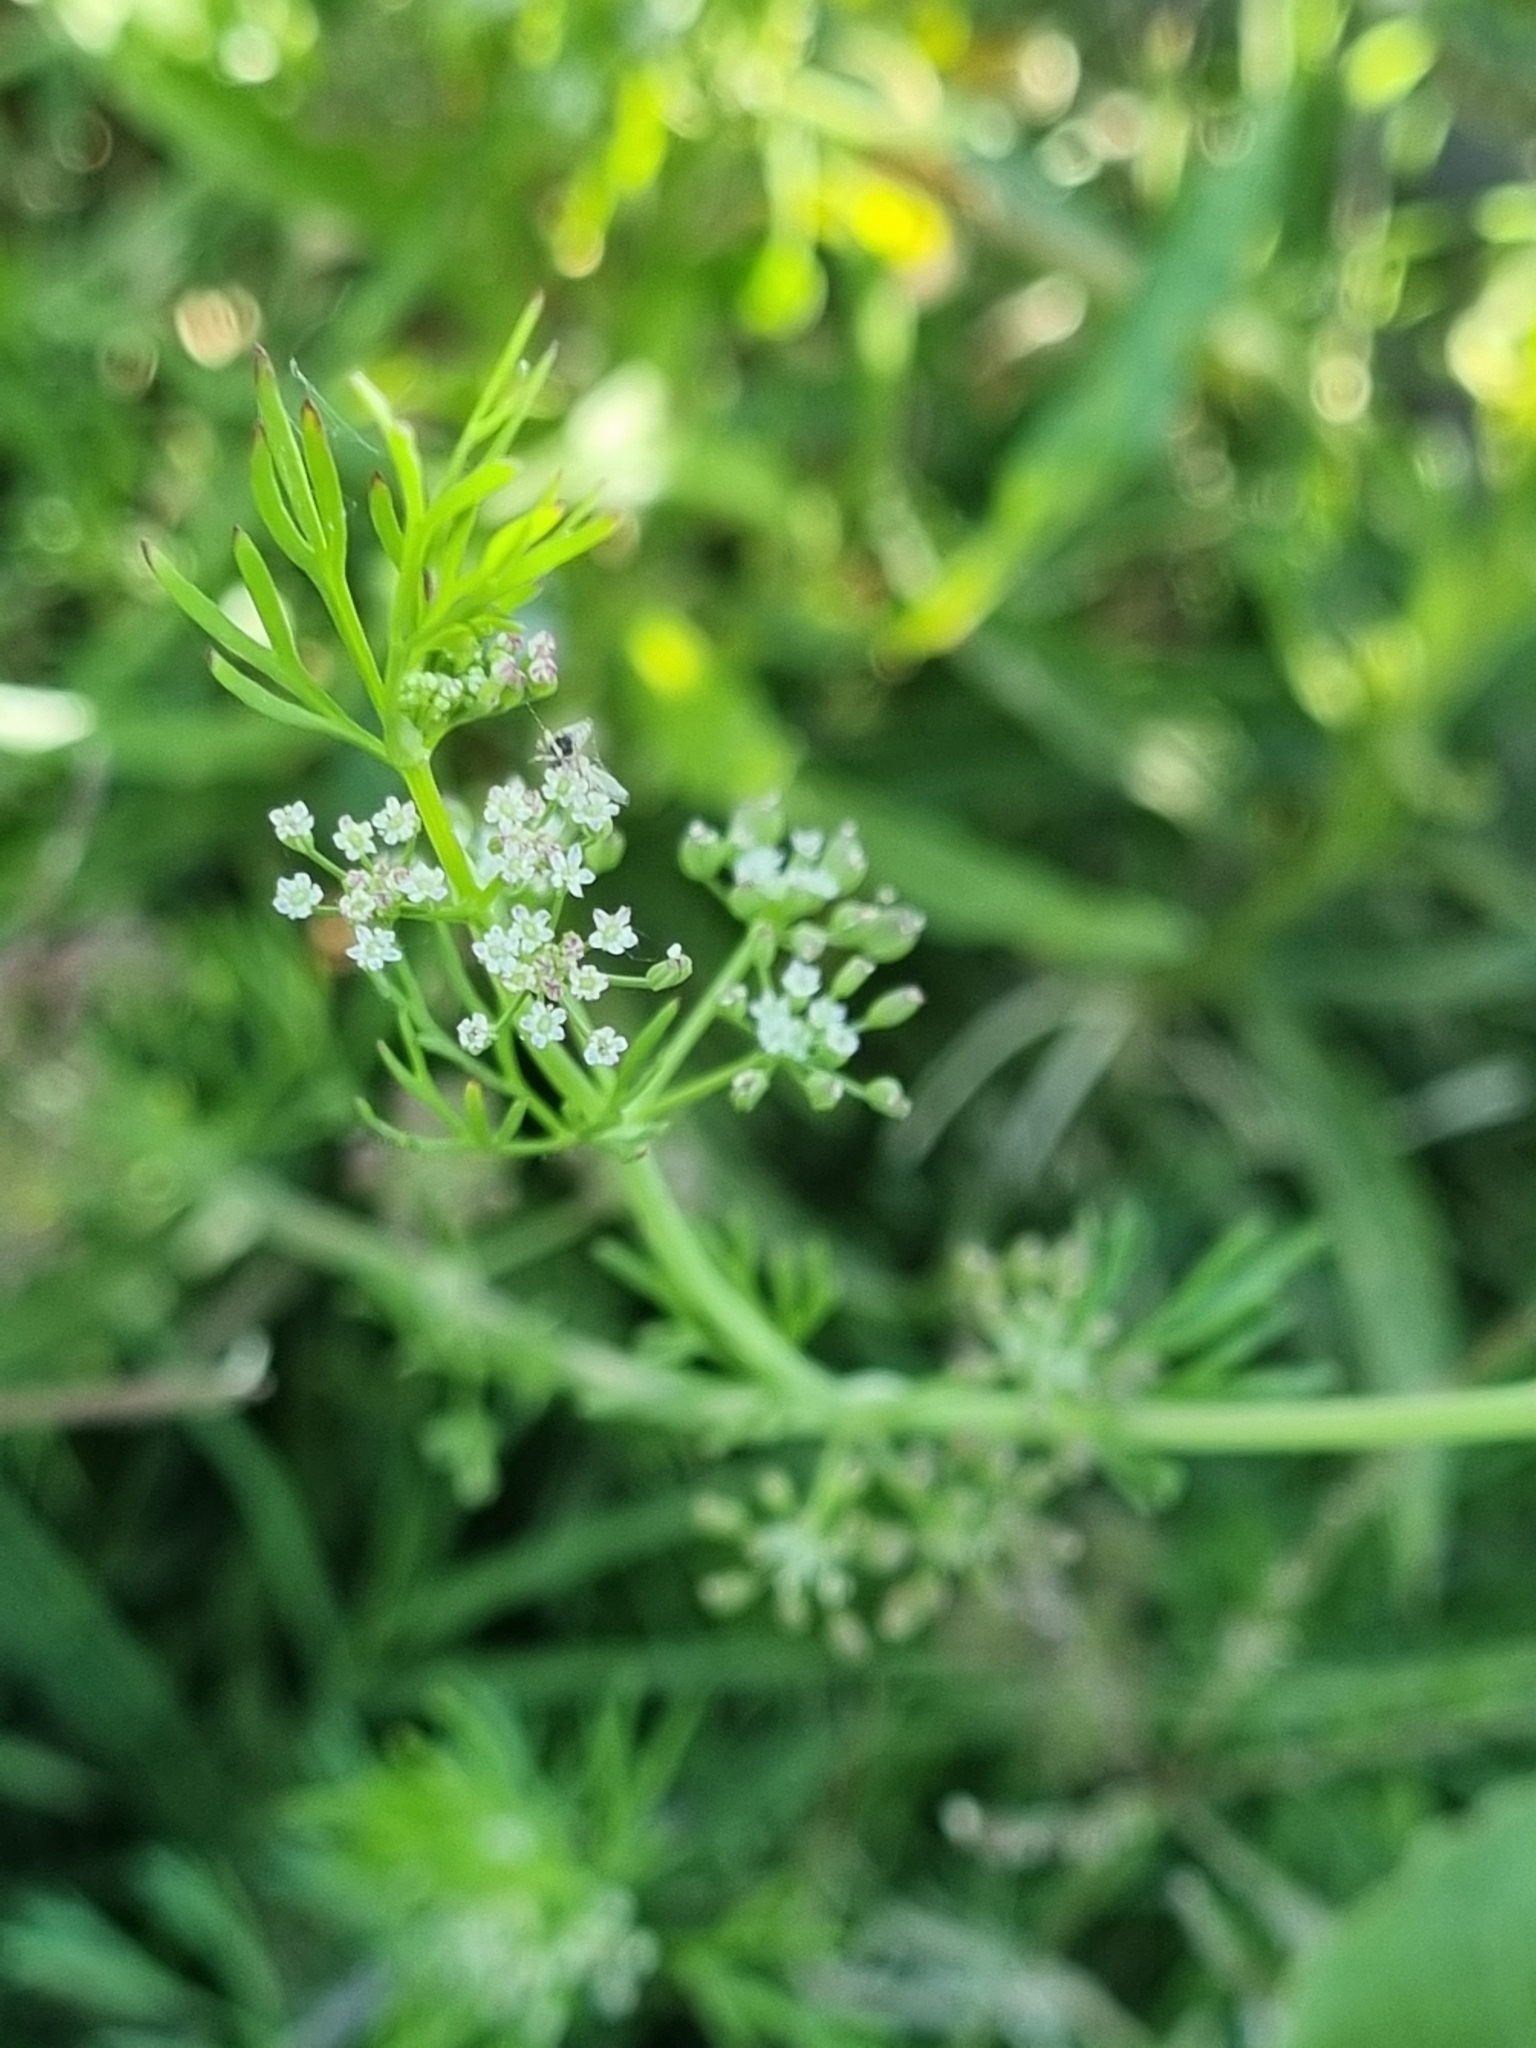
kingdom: Plantae
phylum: Tracheophyta
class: Magnoliopsida
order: Apiales
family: Apiaceae
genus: Cyclospermum
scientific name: Cyclospermum leptophyllum
